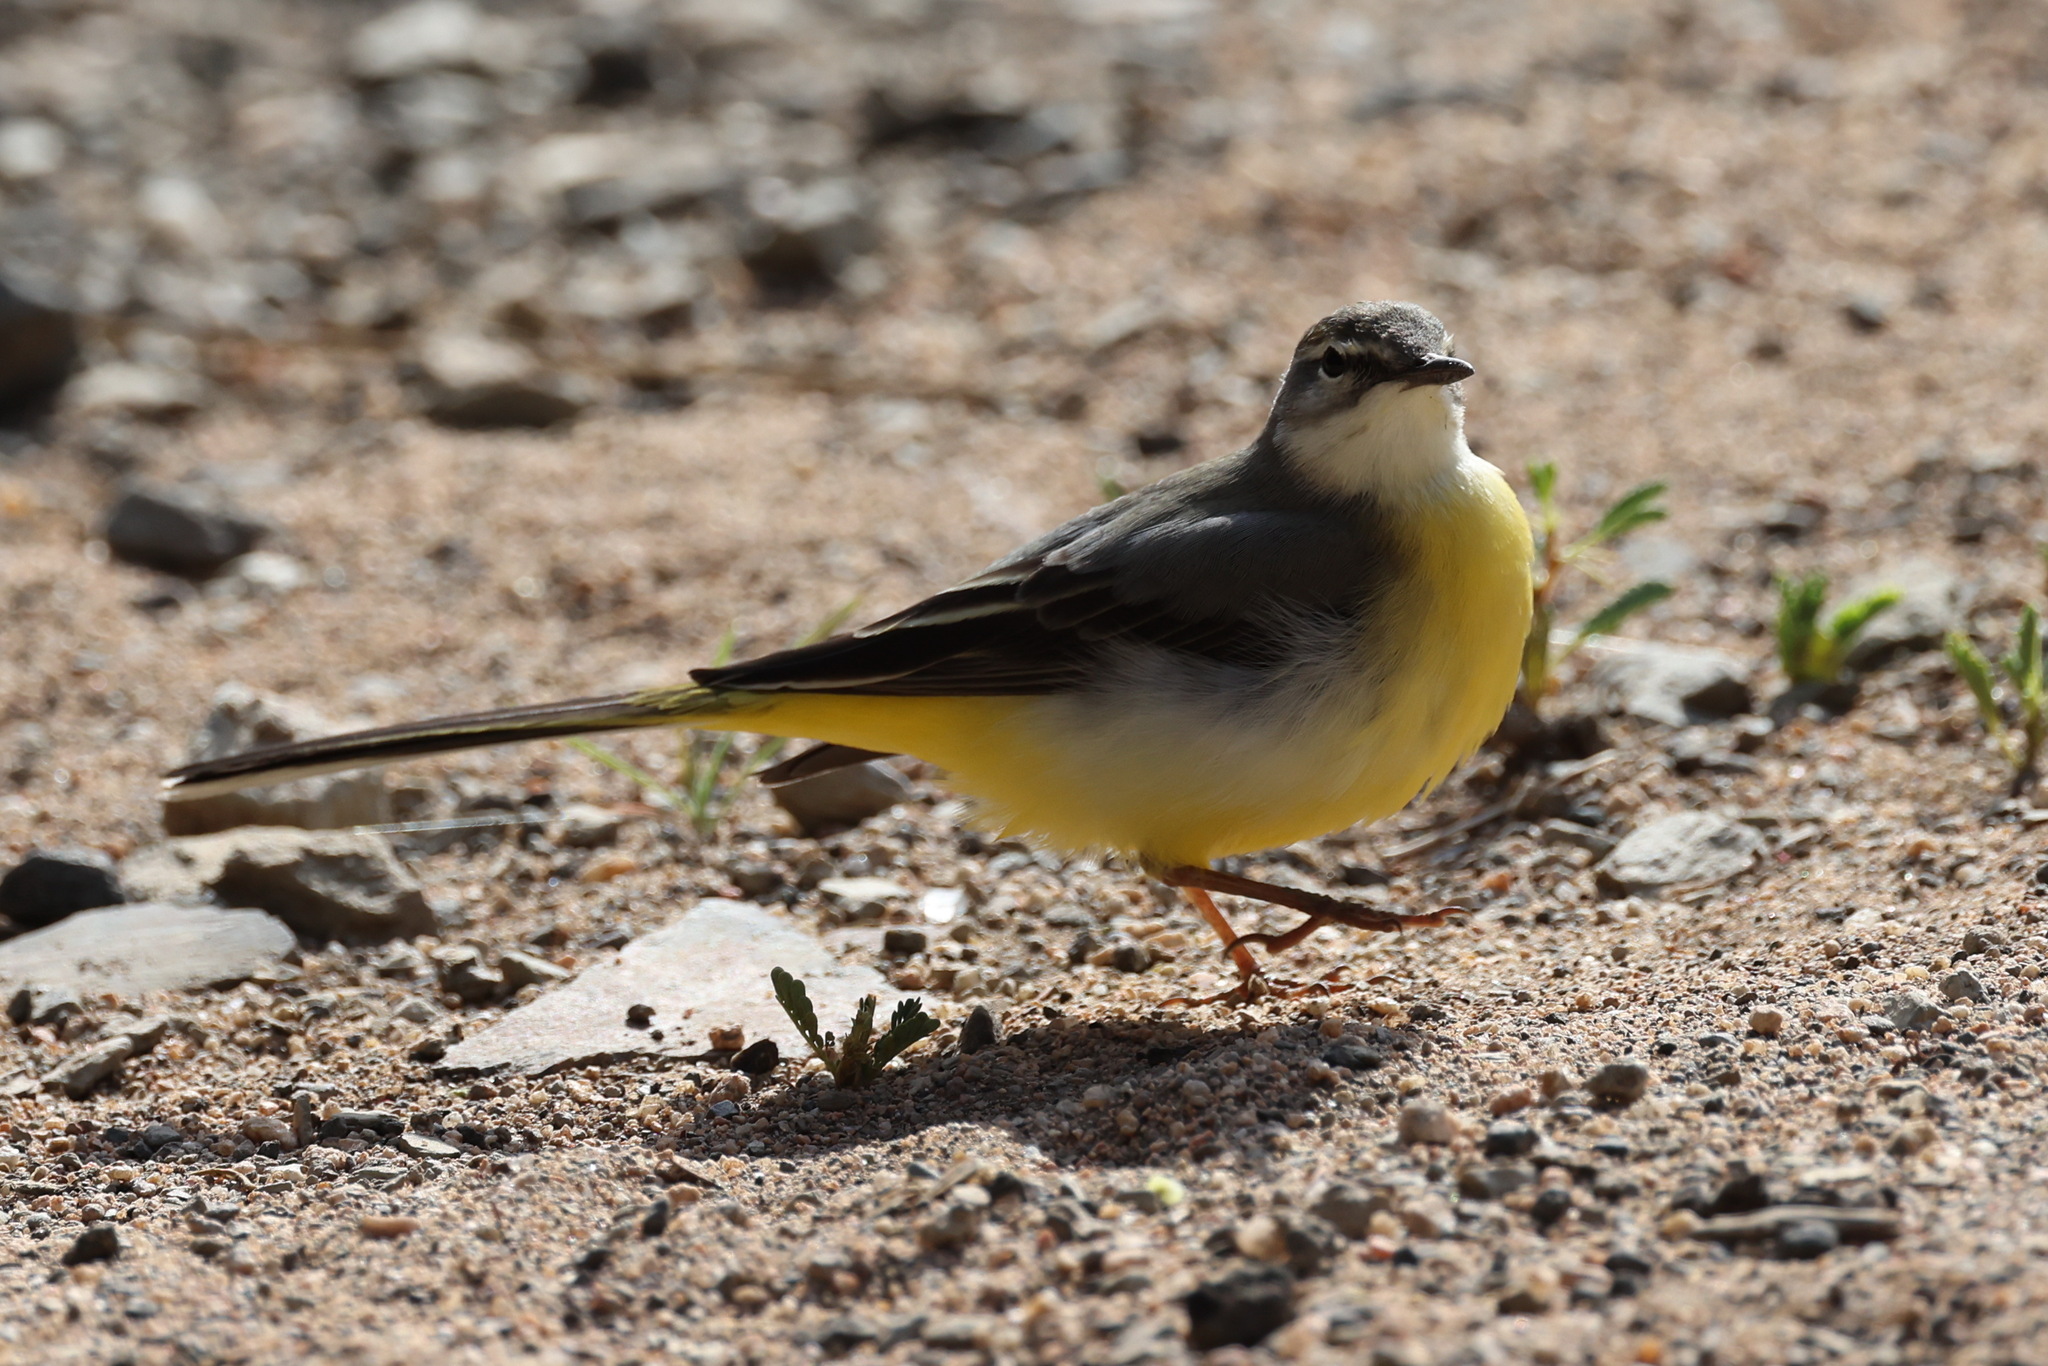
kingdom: Animalia
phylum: Chordata
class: Aves
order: Passeriformes
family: Motacillidae
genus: Motacilla
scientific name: Motacilla cinerea
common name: Grey wagtail
